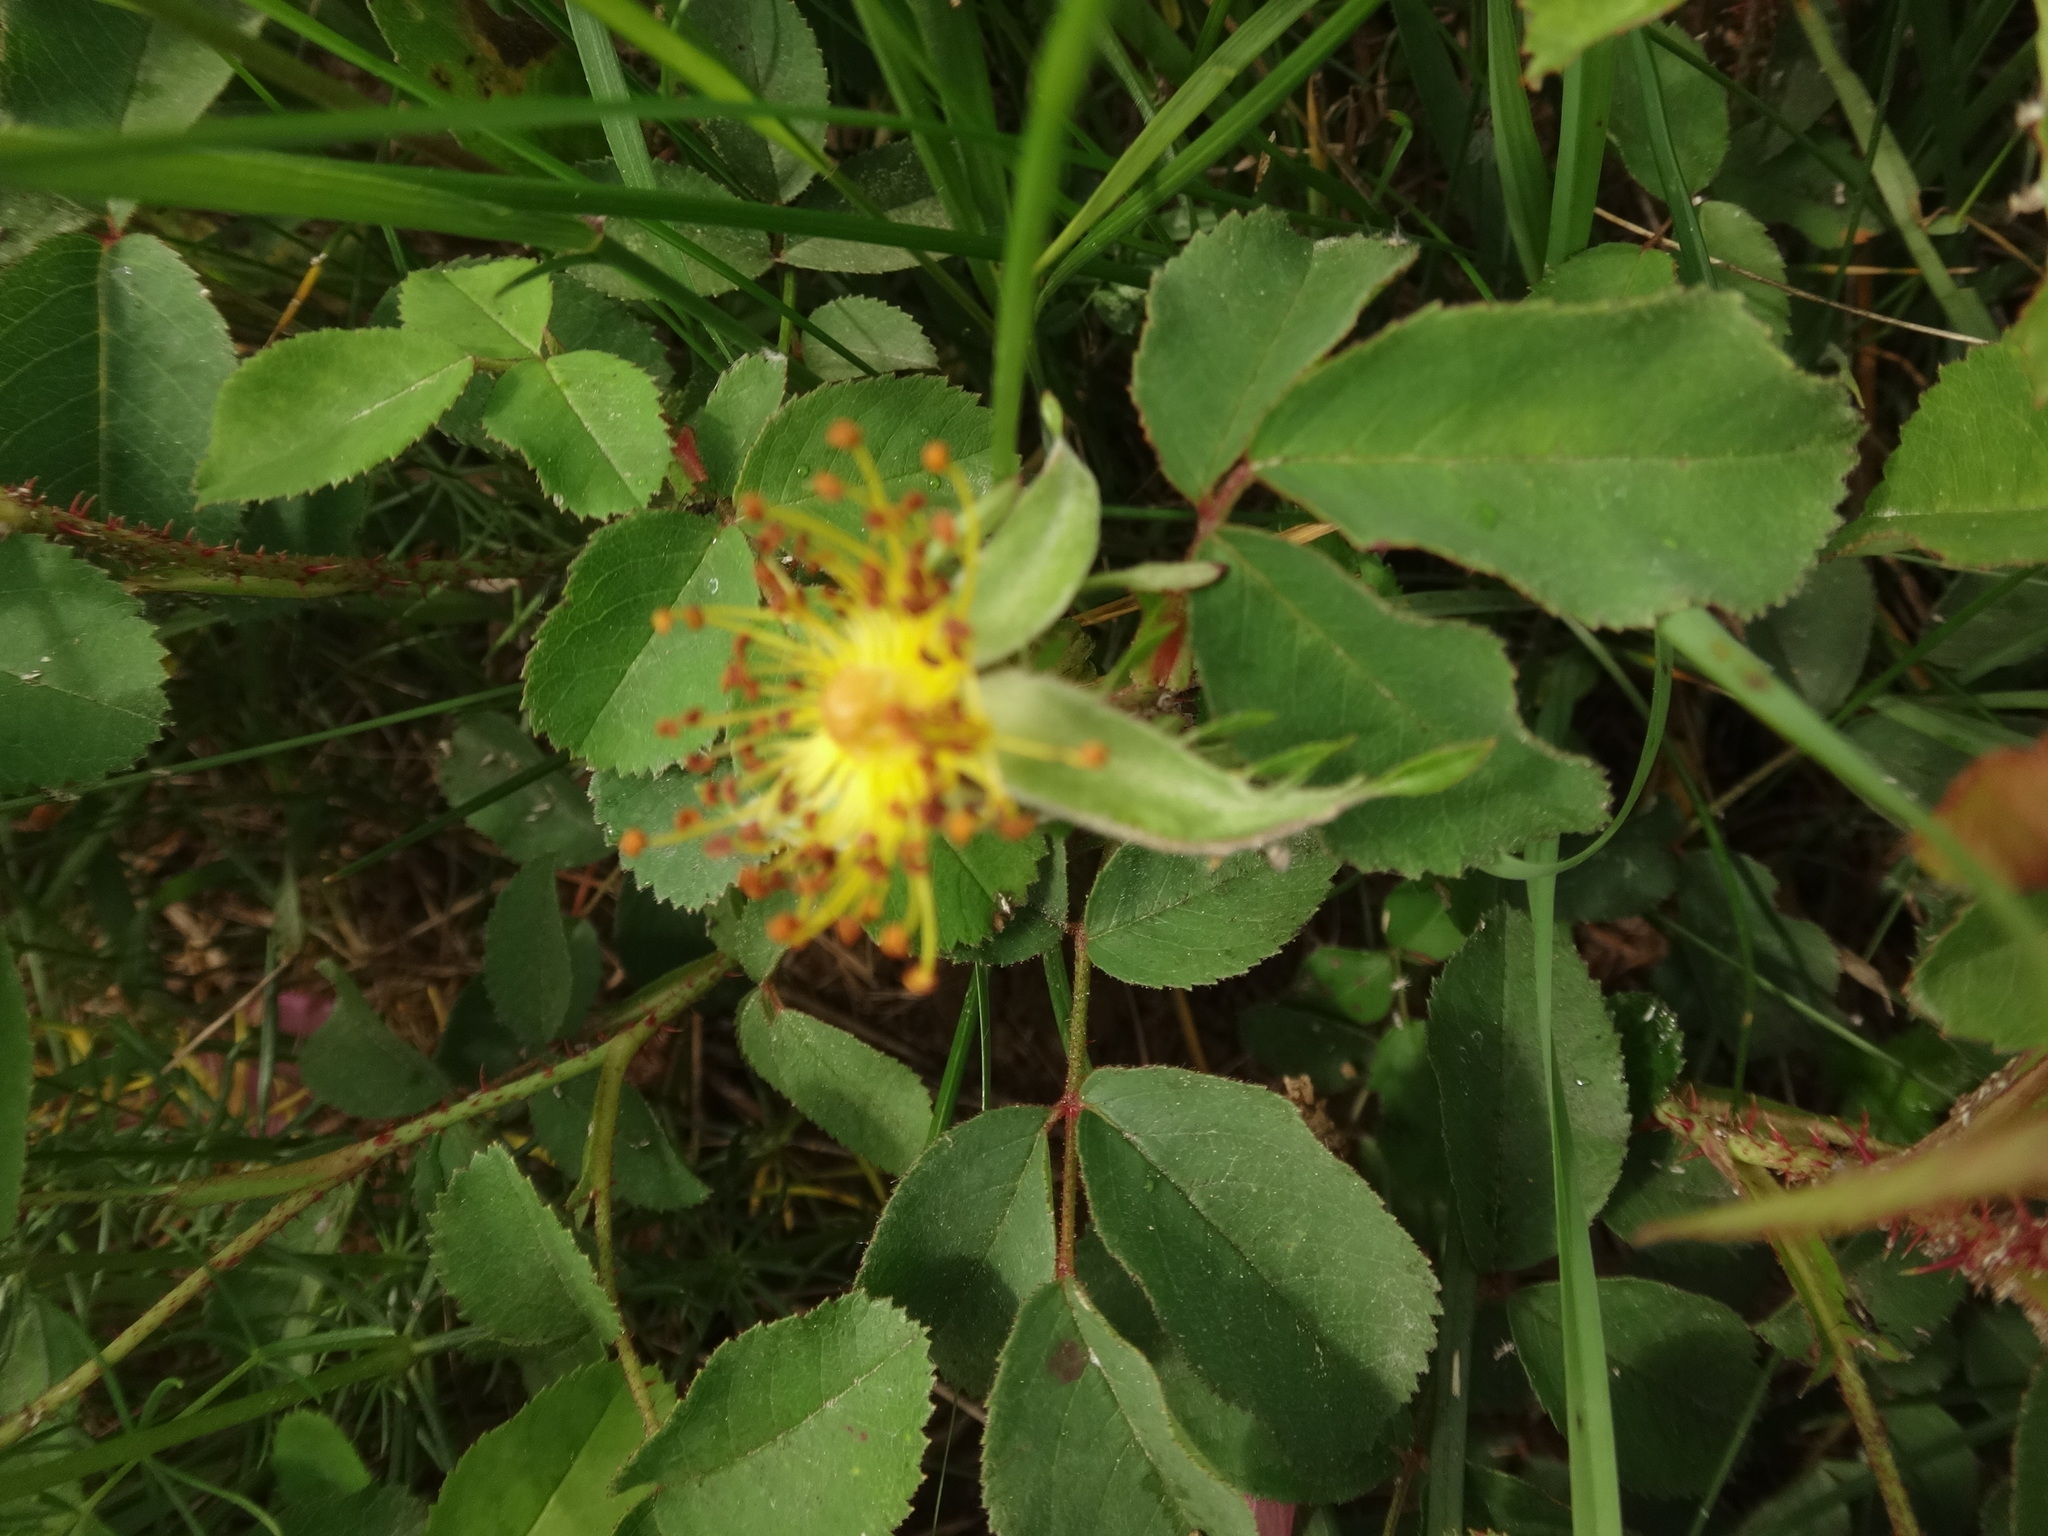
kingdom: Plantae
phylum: Tracheophyta
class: Magnoliopsida
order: Rosales
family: Rosaceae
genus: Rosa
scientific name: Rosa gallica
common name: French rose
